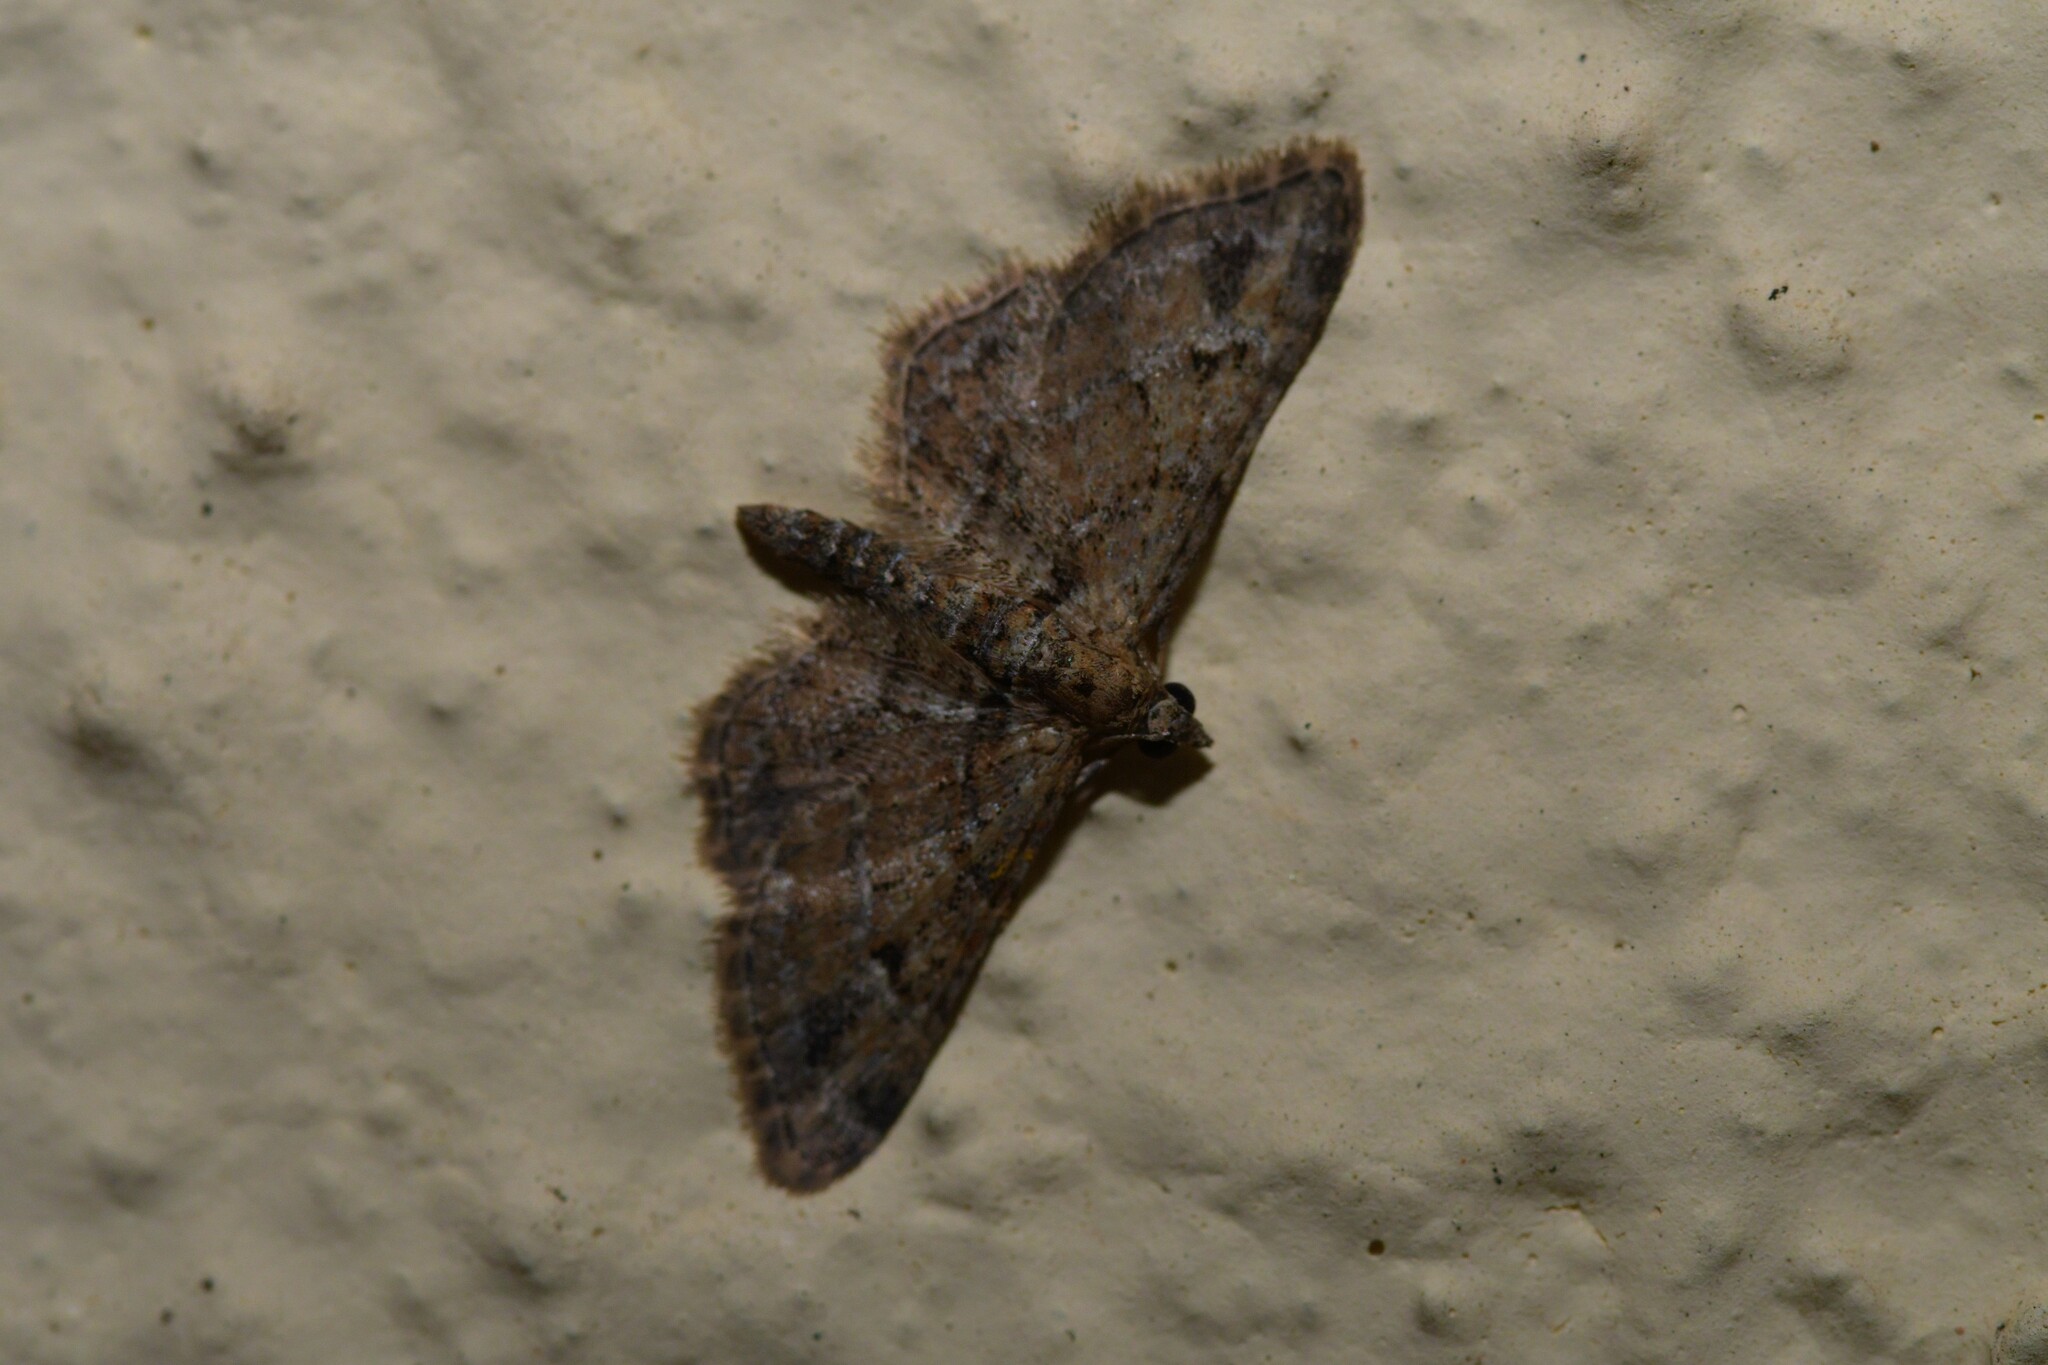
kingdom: Animalia
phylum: Arthropoda
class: Insecta
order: Lepidoptera
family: Geometridae
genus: Gymnoscelis
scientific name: Gymnoscelis rufifasciata
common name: Double-striped pug
